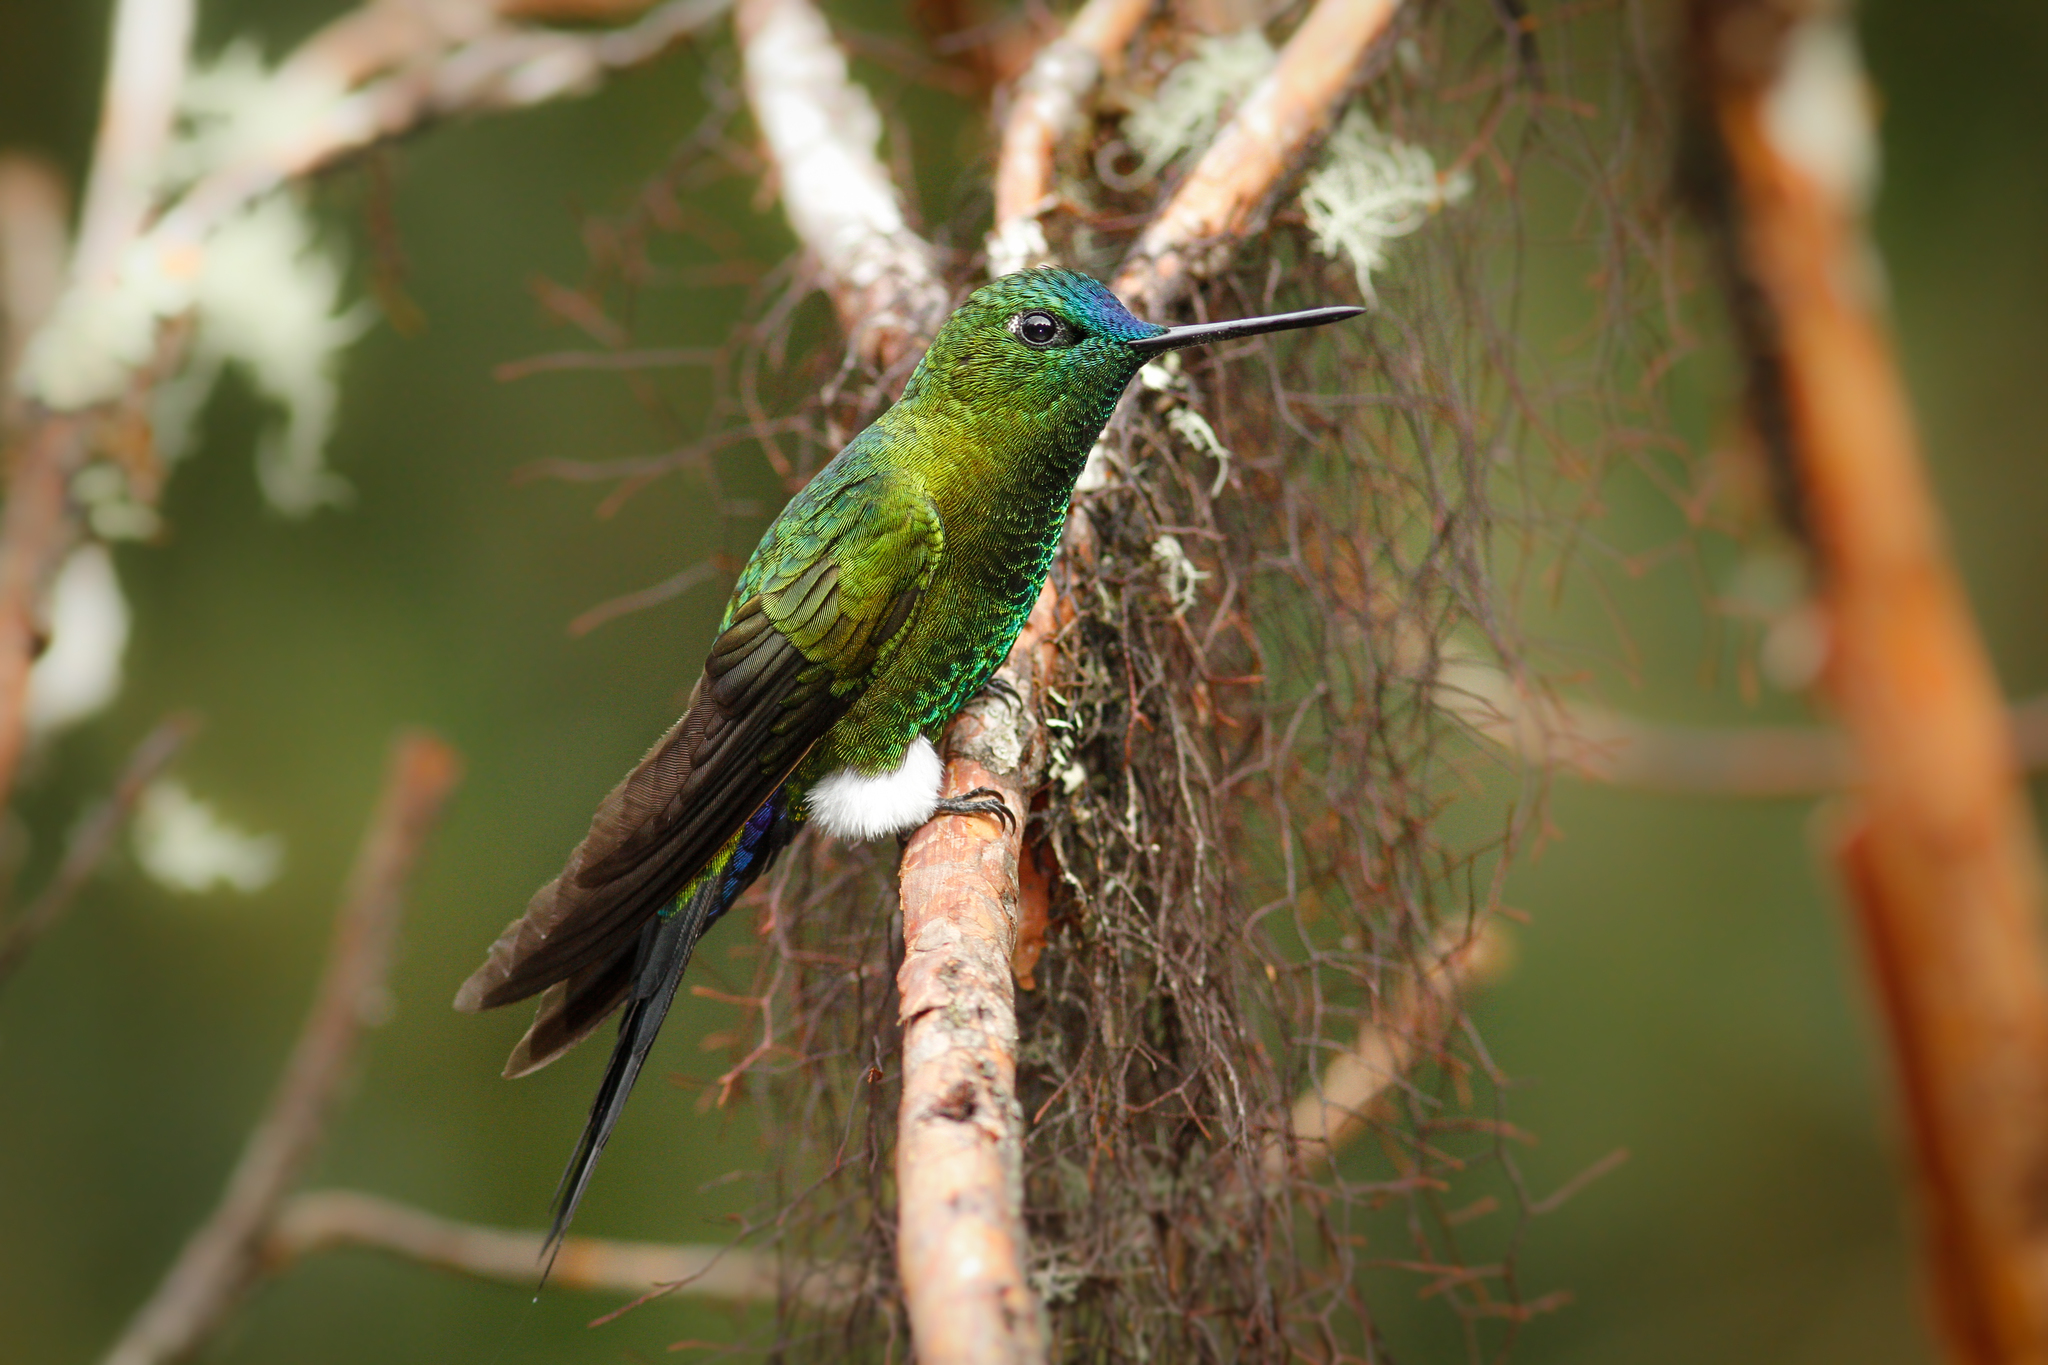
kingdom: Animalia
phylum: Chordata
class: Aves
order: Apodiformes
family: Trochilidae
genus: Eriocnemis
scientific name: Eriocnemis luciani
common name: Sapphire-vented puffleg
